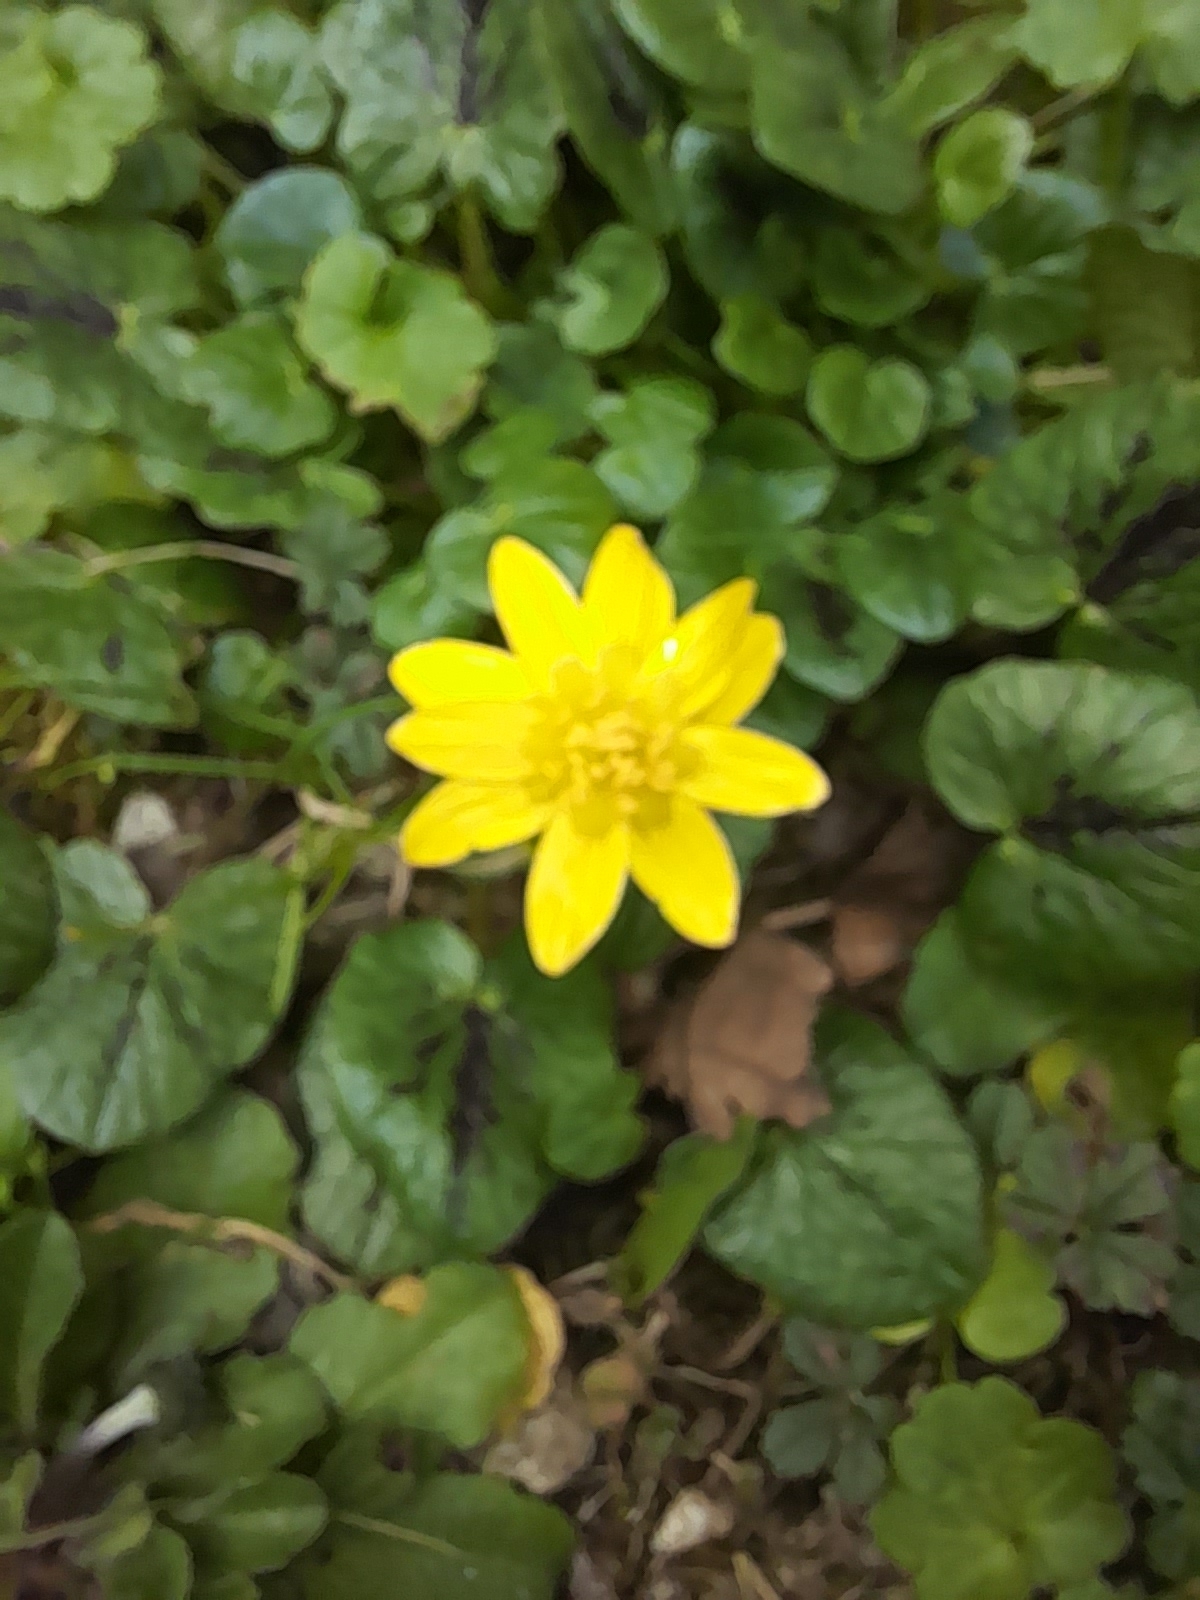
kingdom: Plantae
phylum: Tracheophyta
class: Magnoliopsida
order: Ranunculales
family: Ranunculaceae
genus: Ficaria
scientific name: Ficaria verna
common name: Lesser celandine
